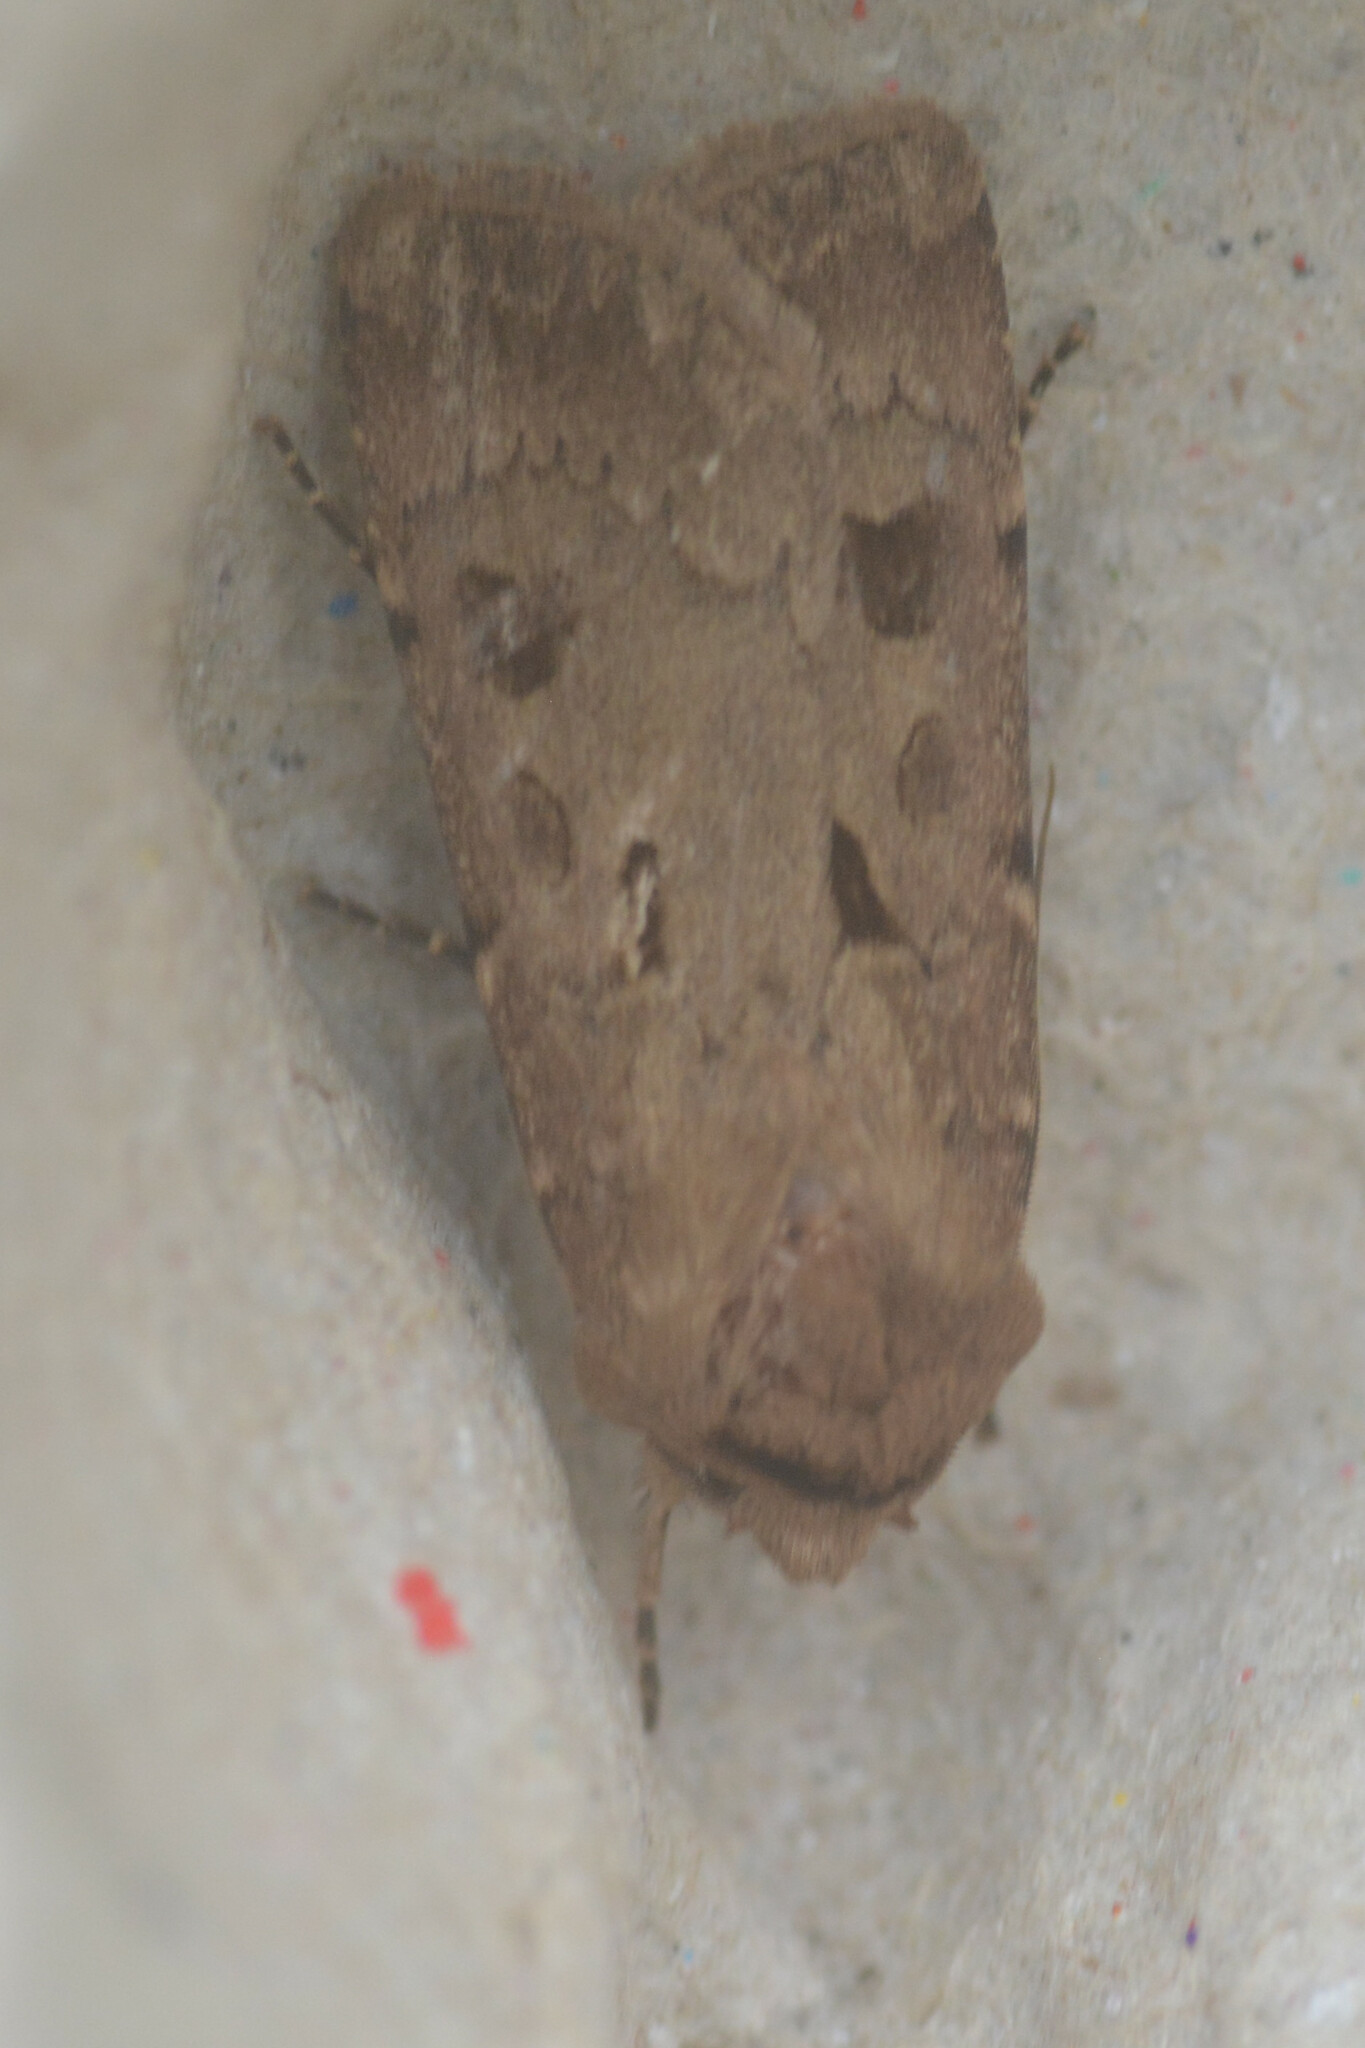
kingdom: Animalia
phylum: Arthropoda
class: Insecta
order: Lepidoptera
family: Noctuidae
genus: Agrotis
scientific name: Agrotis exclamationis
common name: Heart and dart
